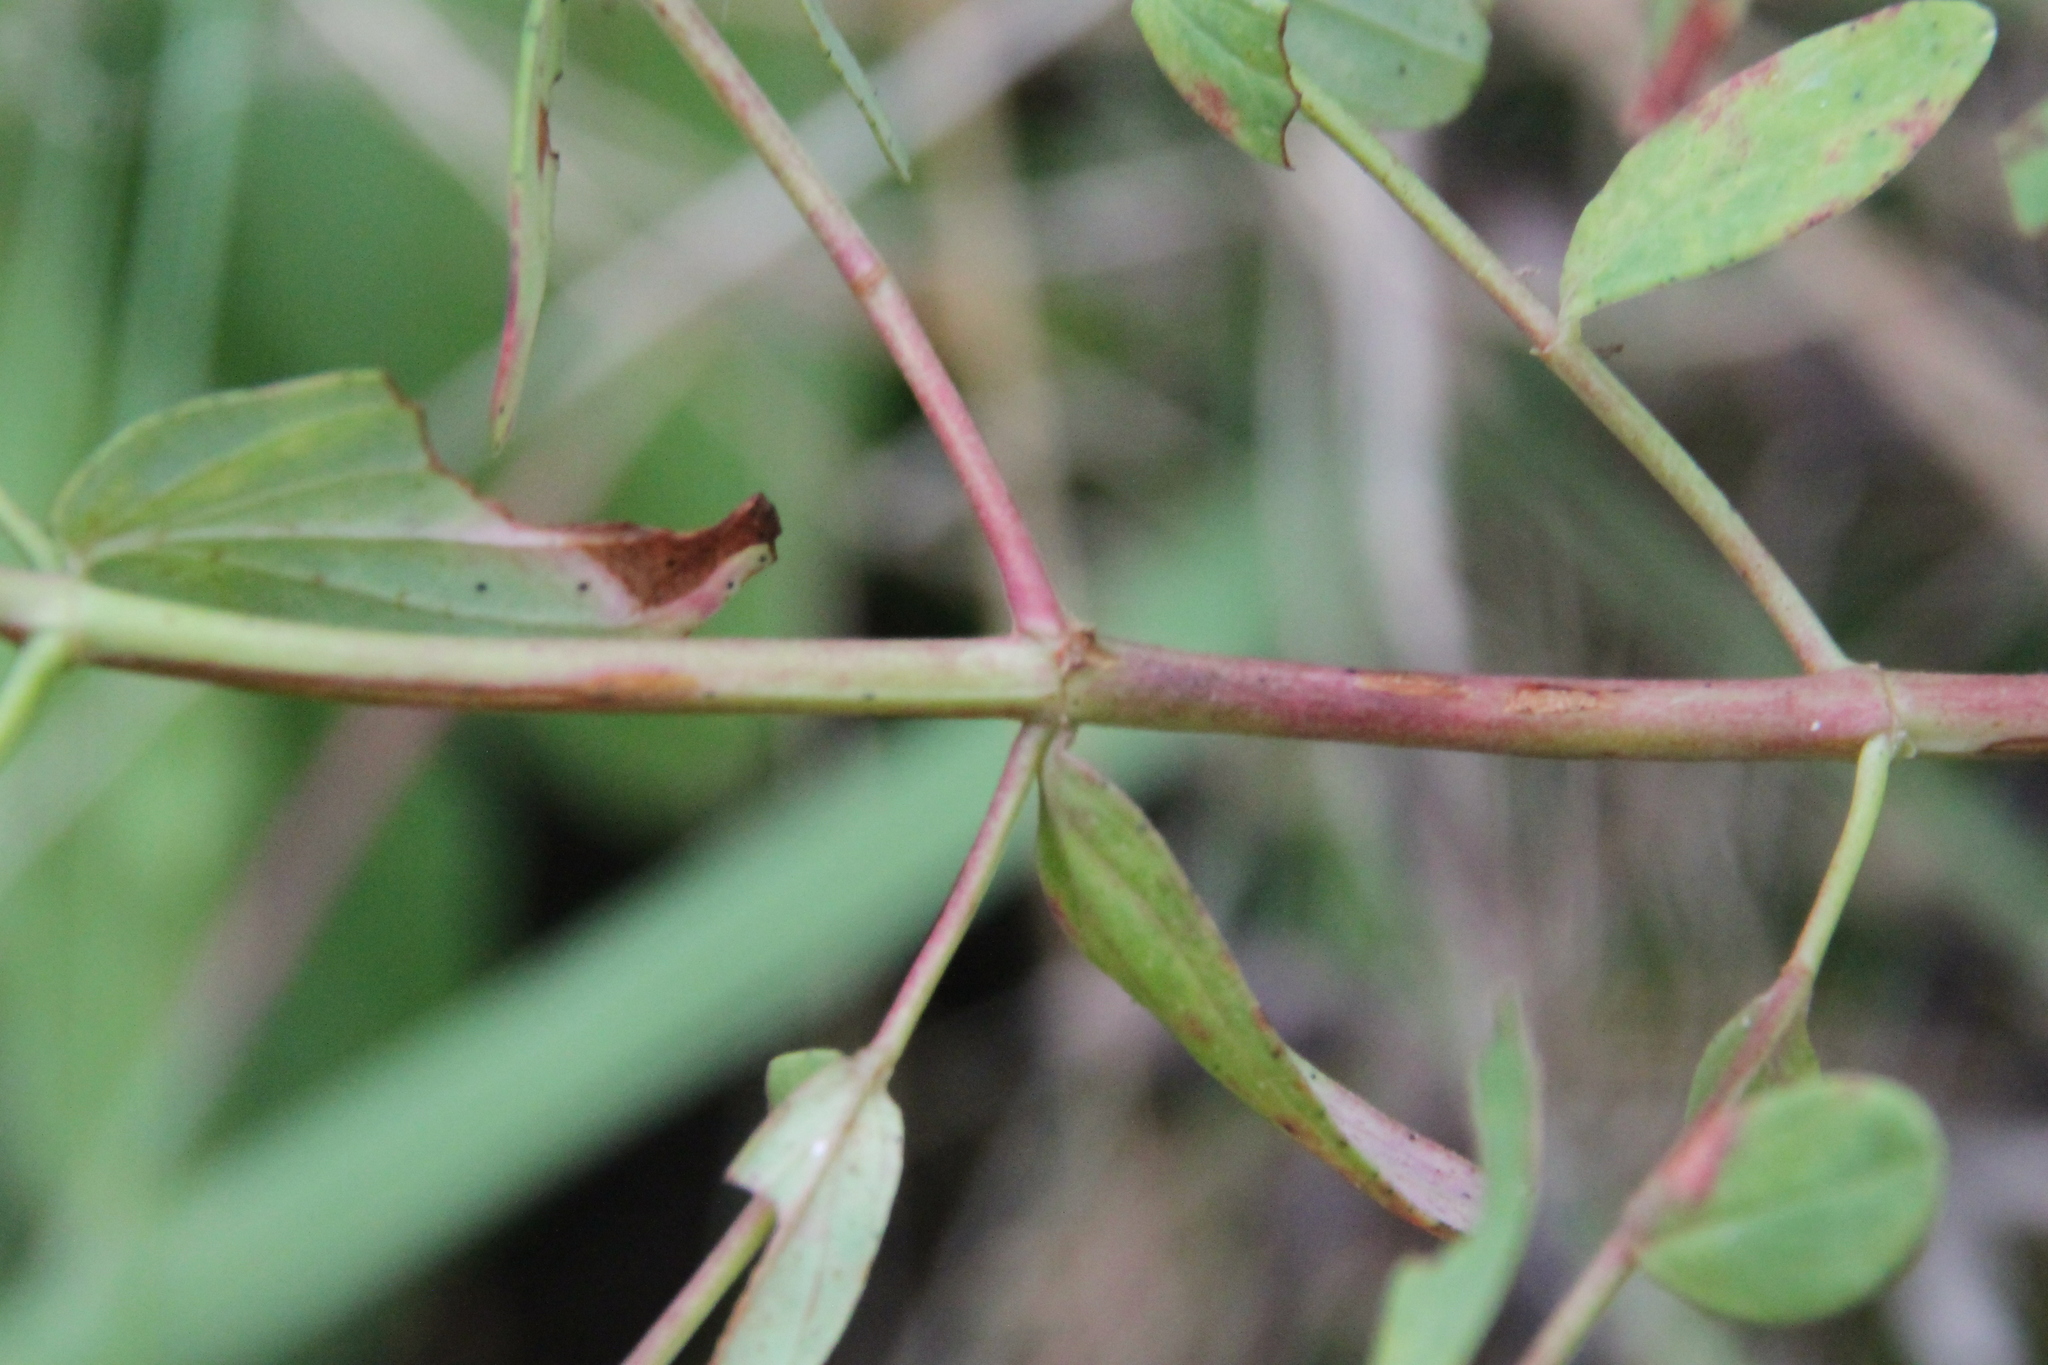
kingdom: Plantae
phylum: Tracheophyta
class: Magnoliopsida
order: Malpighiales
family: Hypericaceae
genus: Hypericum
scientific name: Hypericum perforatum
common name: Common st. johnswort
